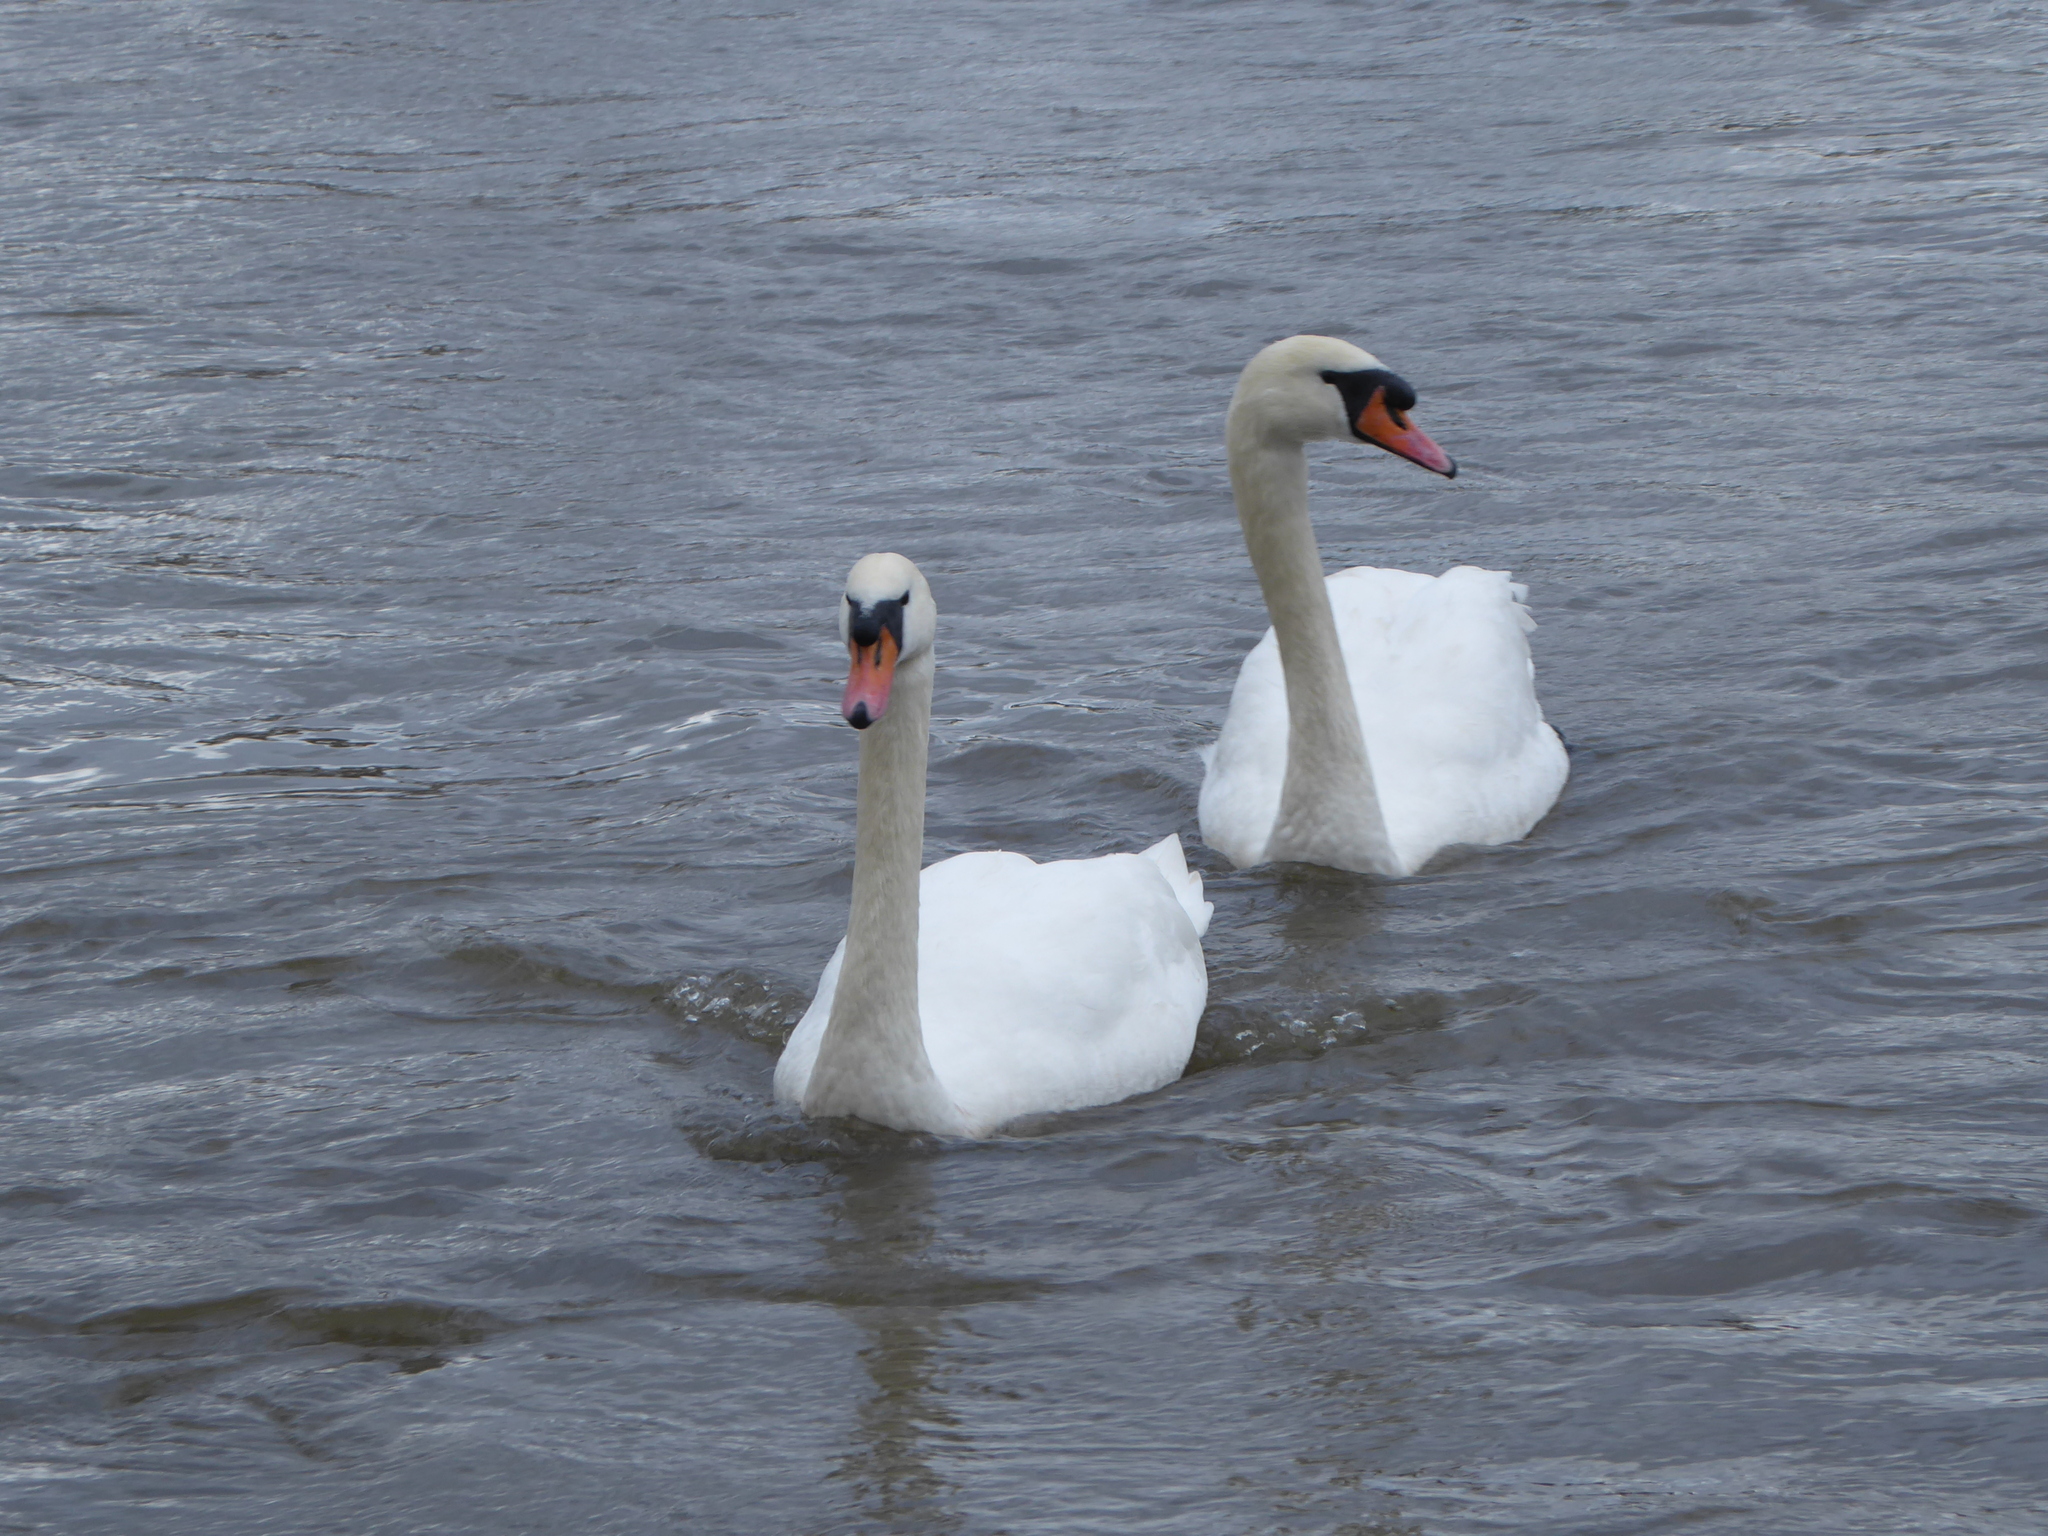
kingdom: Animalia
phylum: Chordata
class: Aves
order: Anseriformes
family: Anatidae
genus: Cygnus
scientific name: Cygnus olor
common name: Mute swan
